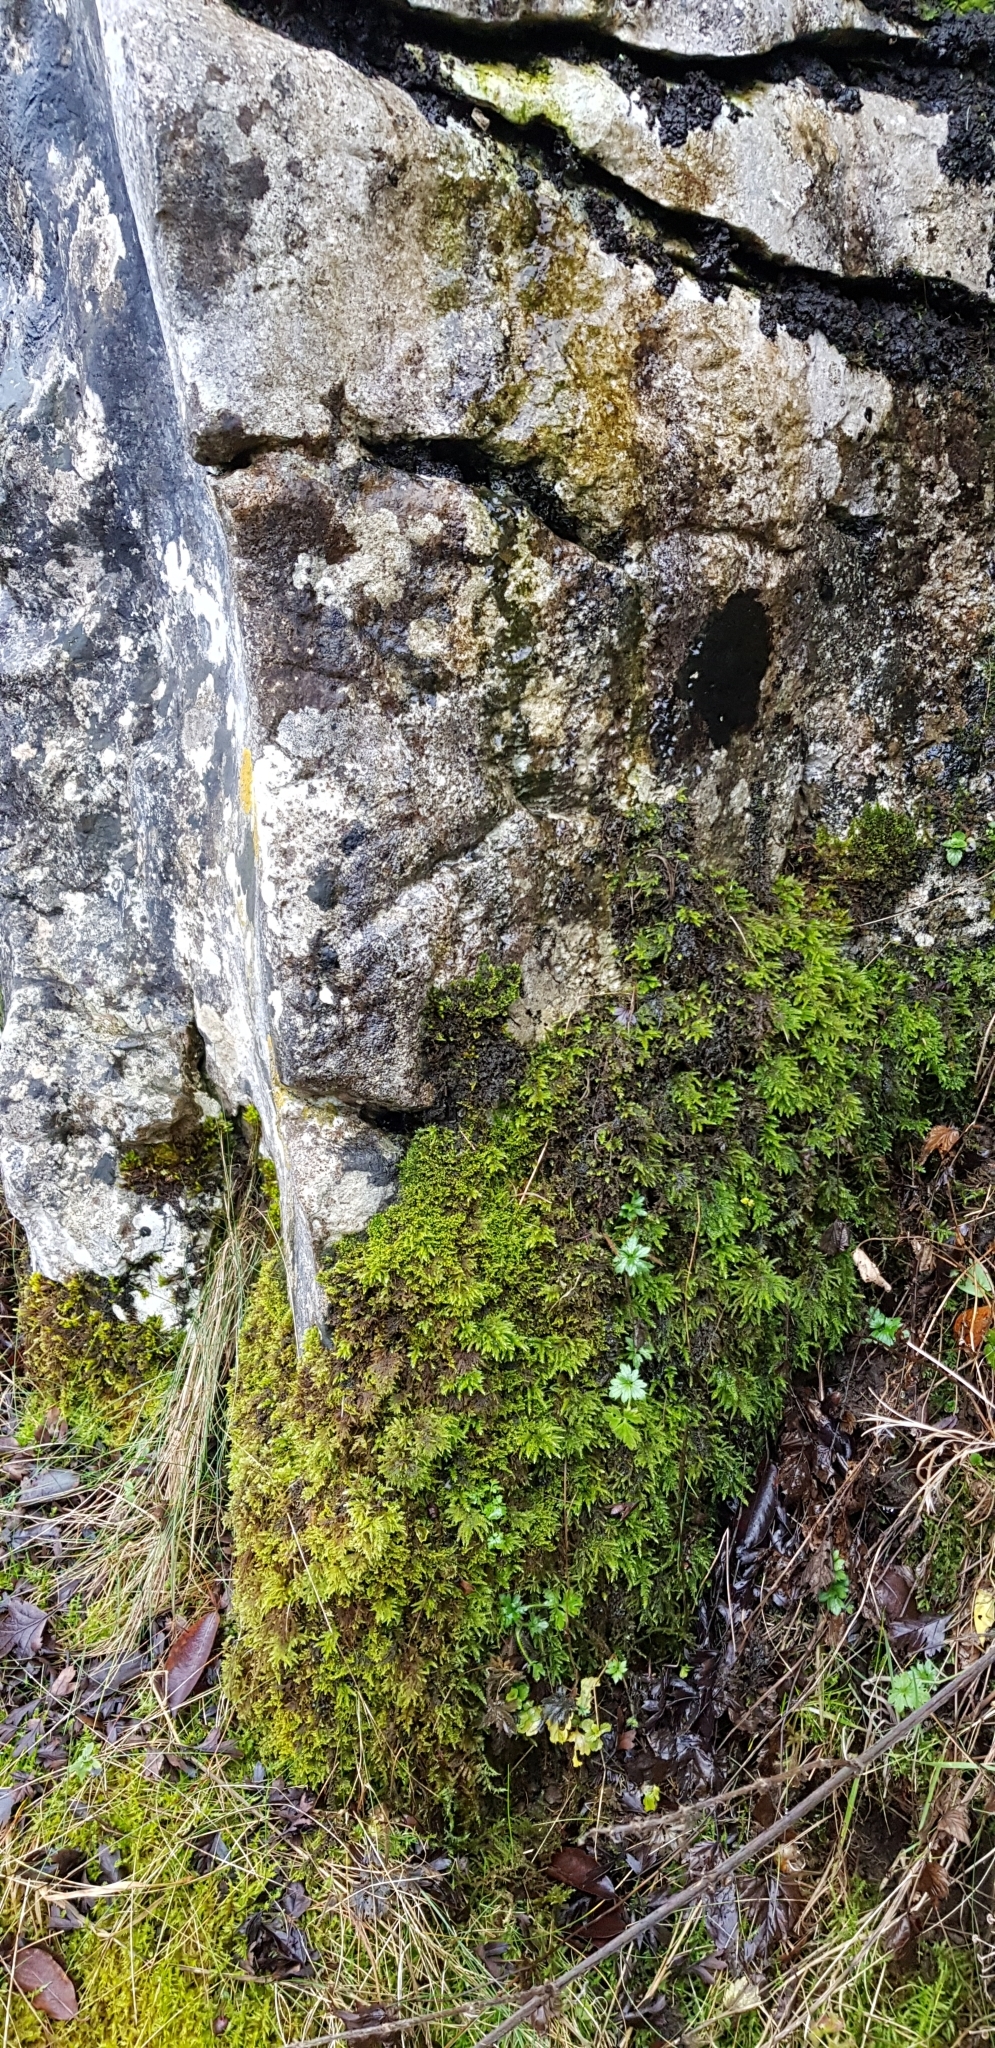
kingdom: Plantae
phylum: Bryophyta
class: Bryopsida
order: Hypnales
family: Neckeraceae
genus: Thamnobryum
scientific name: Thamnobryum alopecurum
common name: Fox-tail feather-moss
